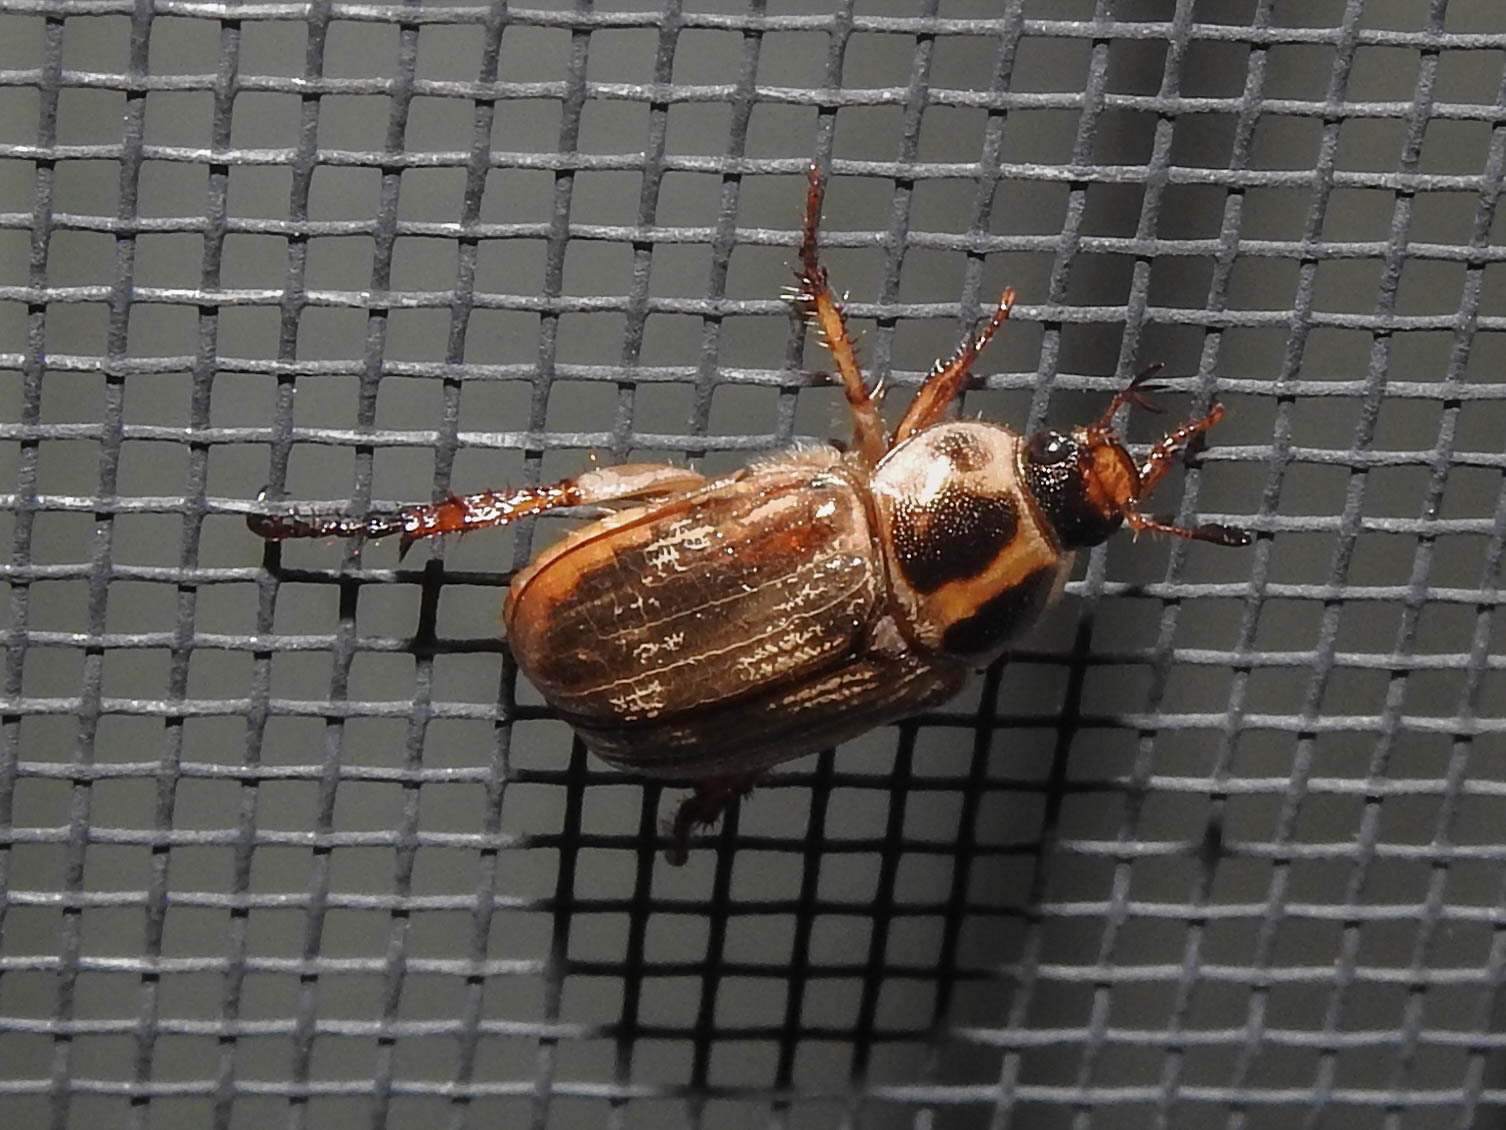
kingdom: Animalia
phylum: Arthropoda
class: Insecta
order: Coleoptera
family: Scarabaeidae
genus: Exomala
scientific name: Exomala orientalis
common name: Oriental beetle
